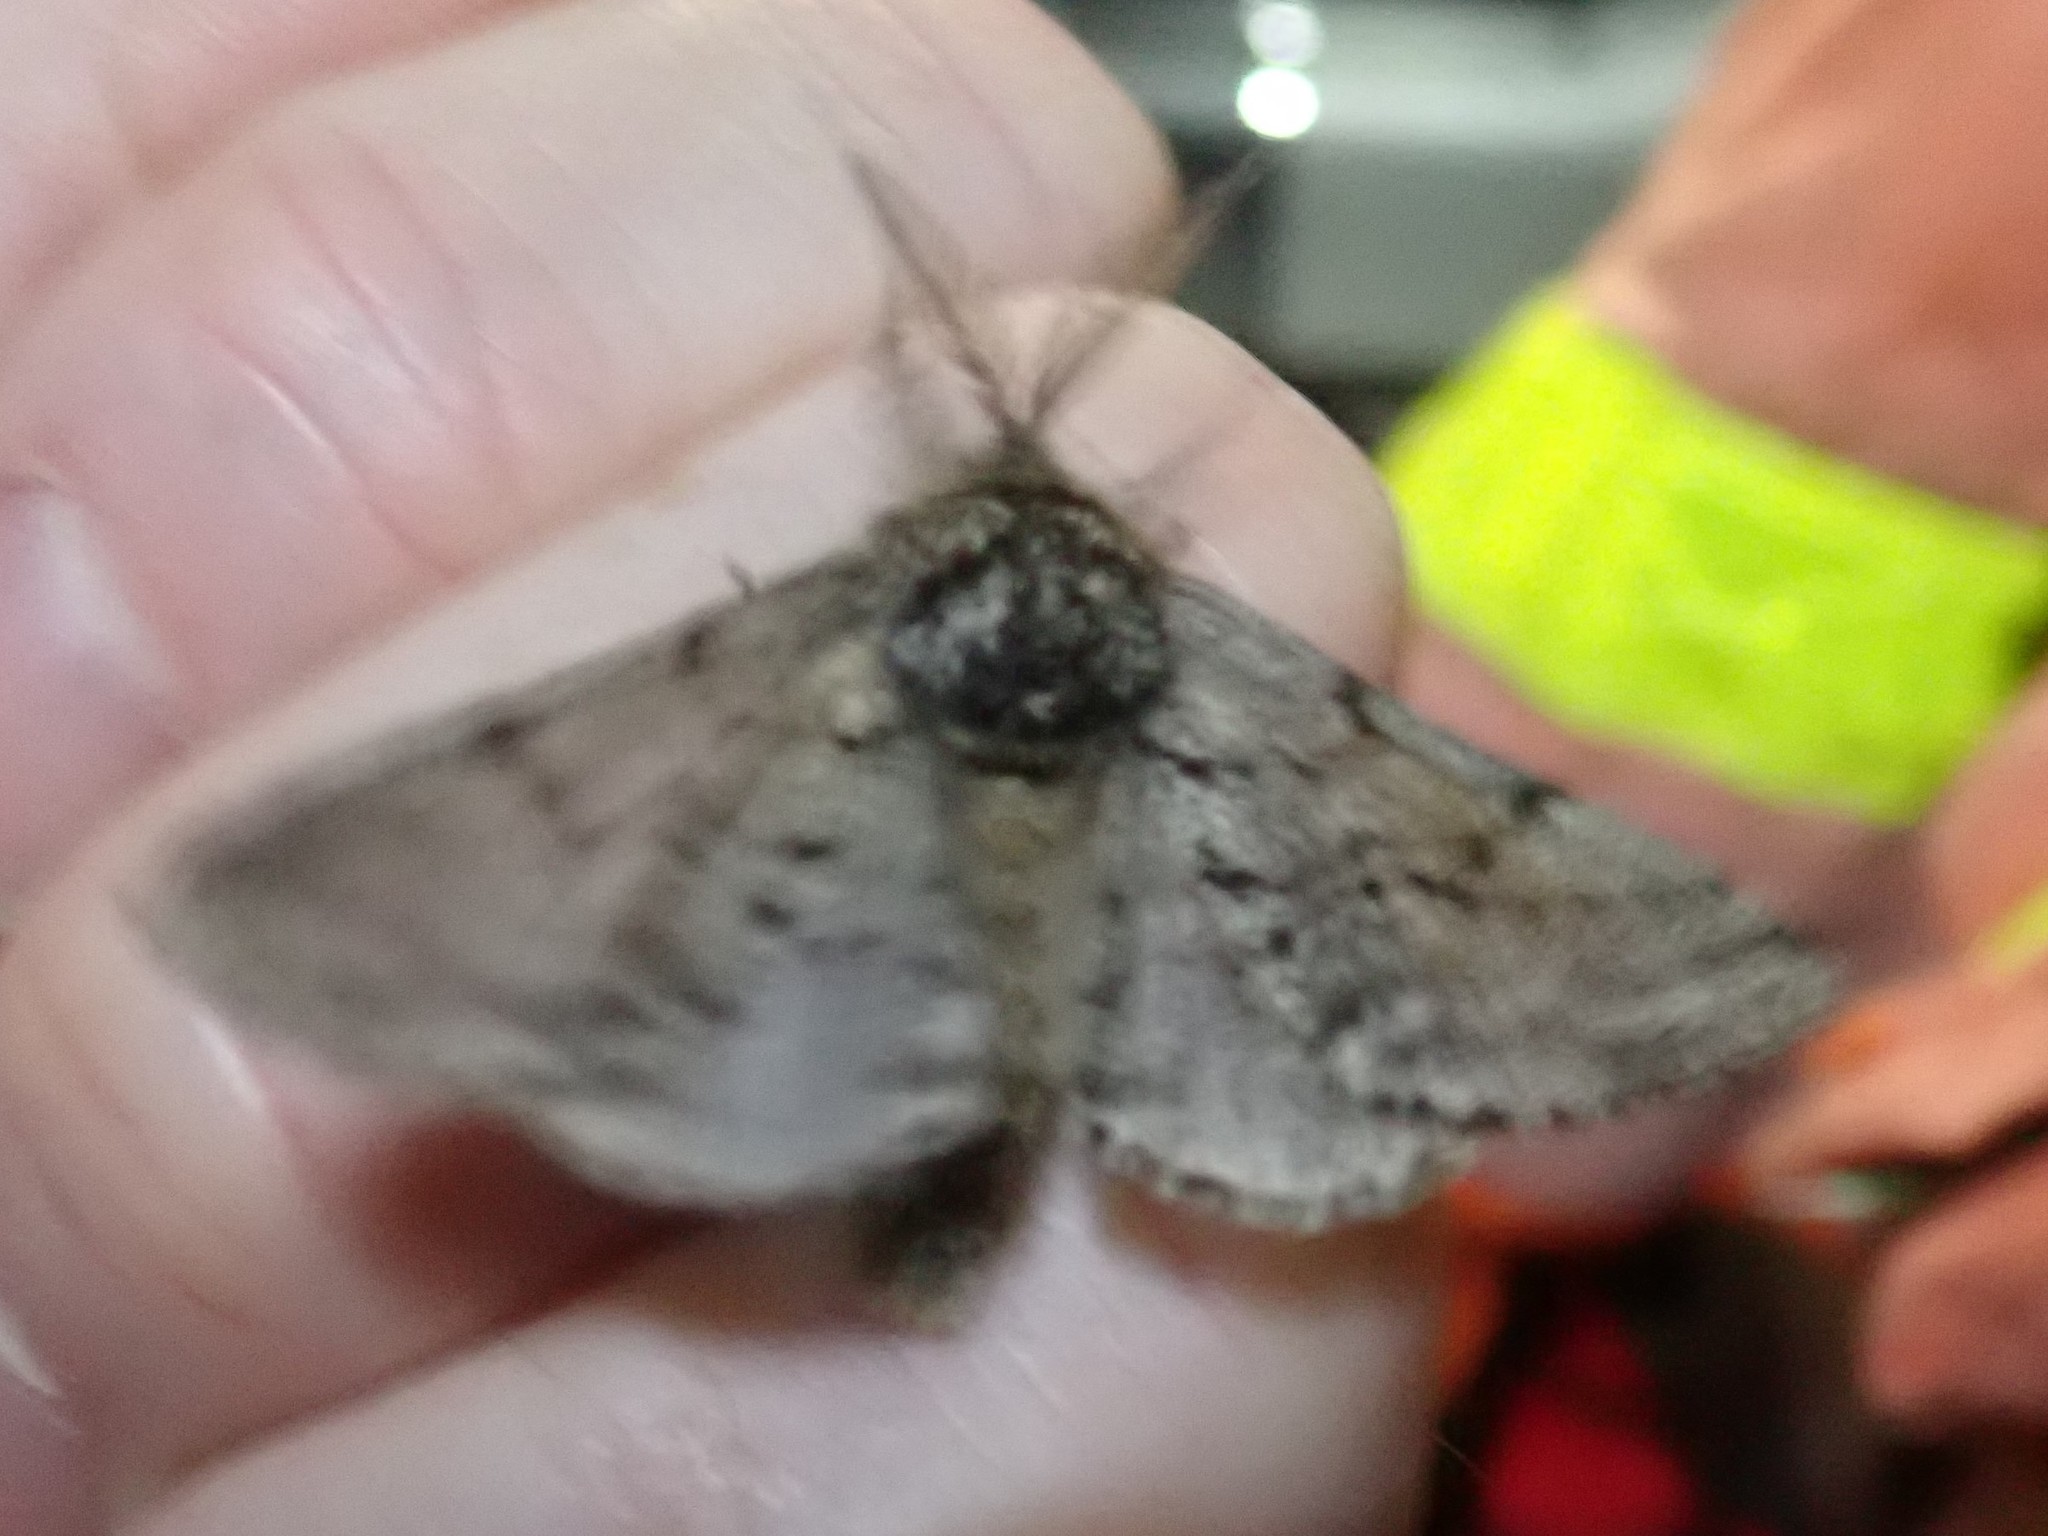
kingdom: Animalia
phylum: Arthropoda
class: Insecta
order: Lepidoptera
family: Geometridae
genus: Lycia
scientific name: Lycia ursaria
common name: Stout spanworm
